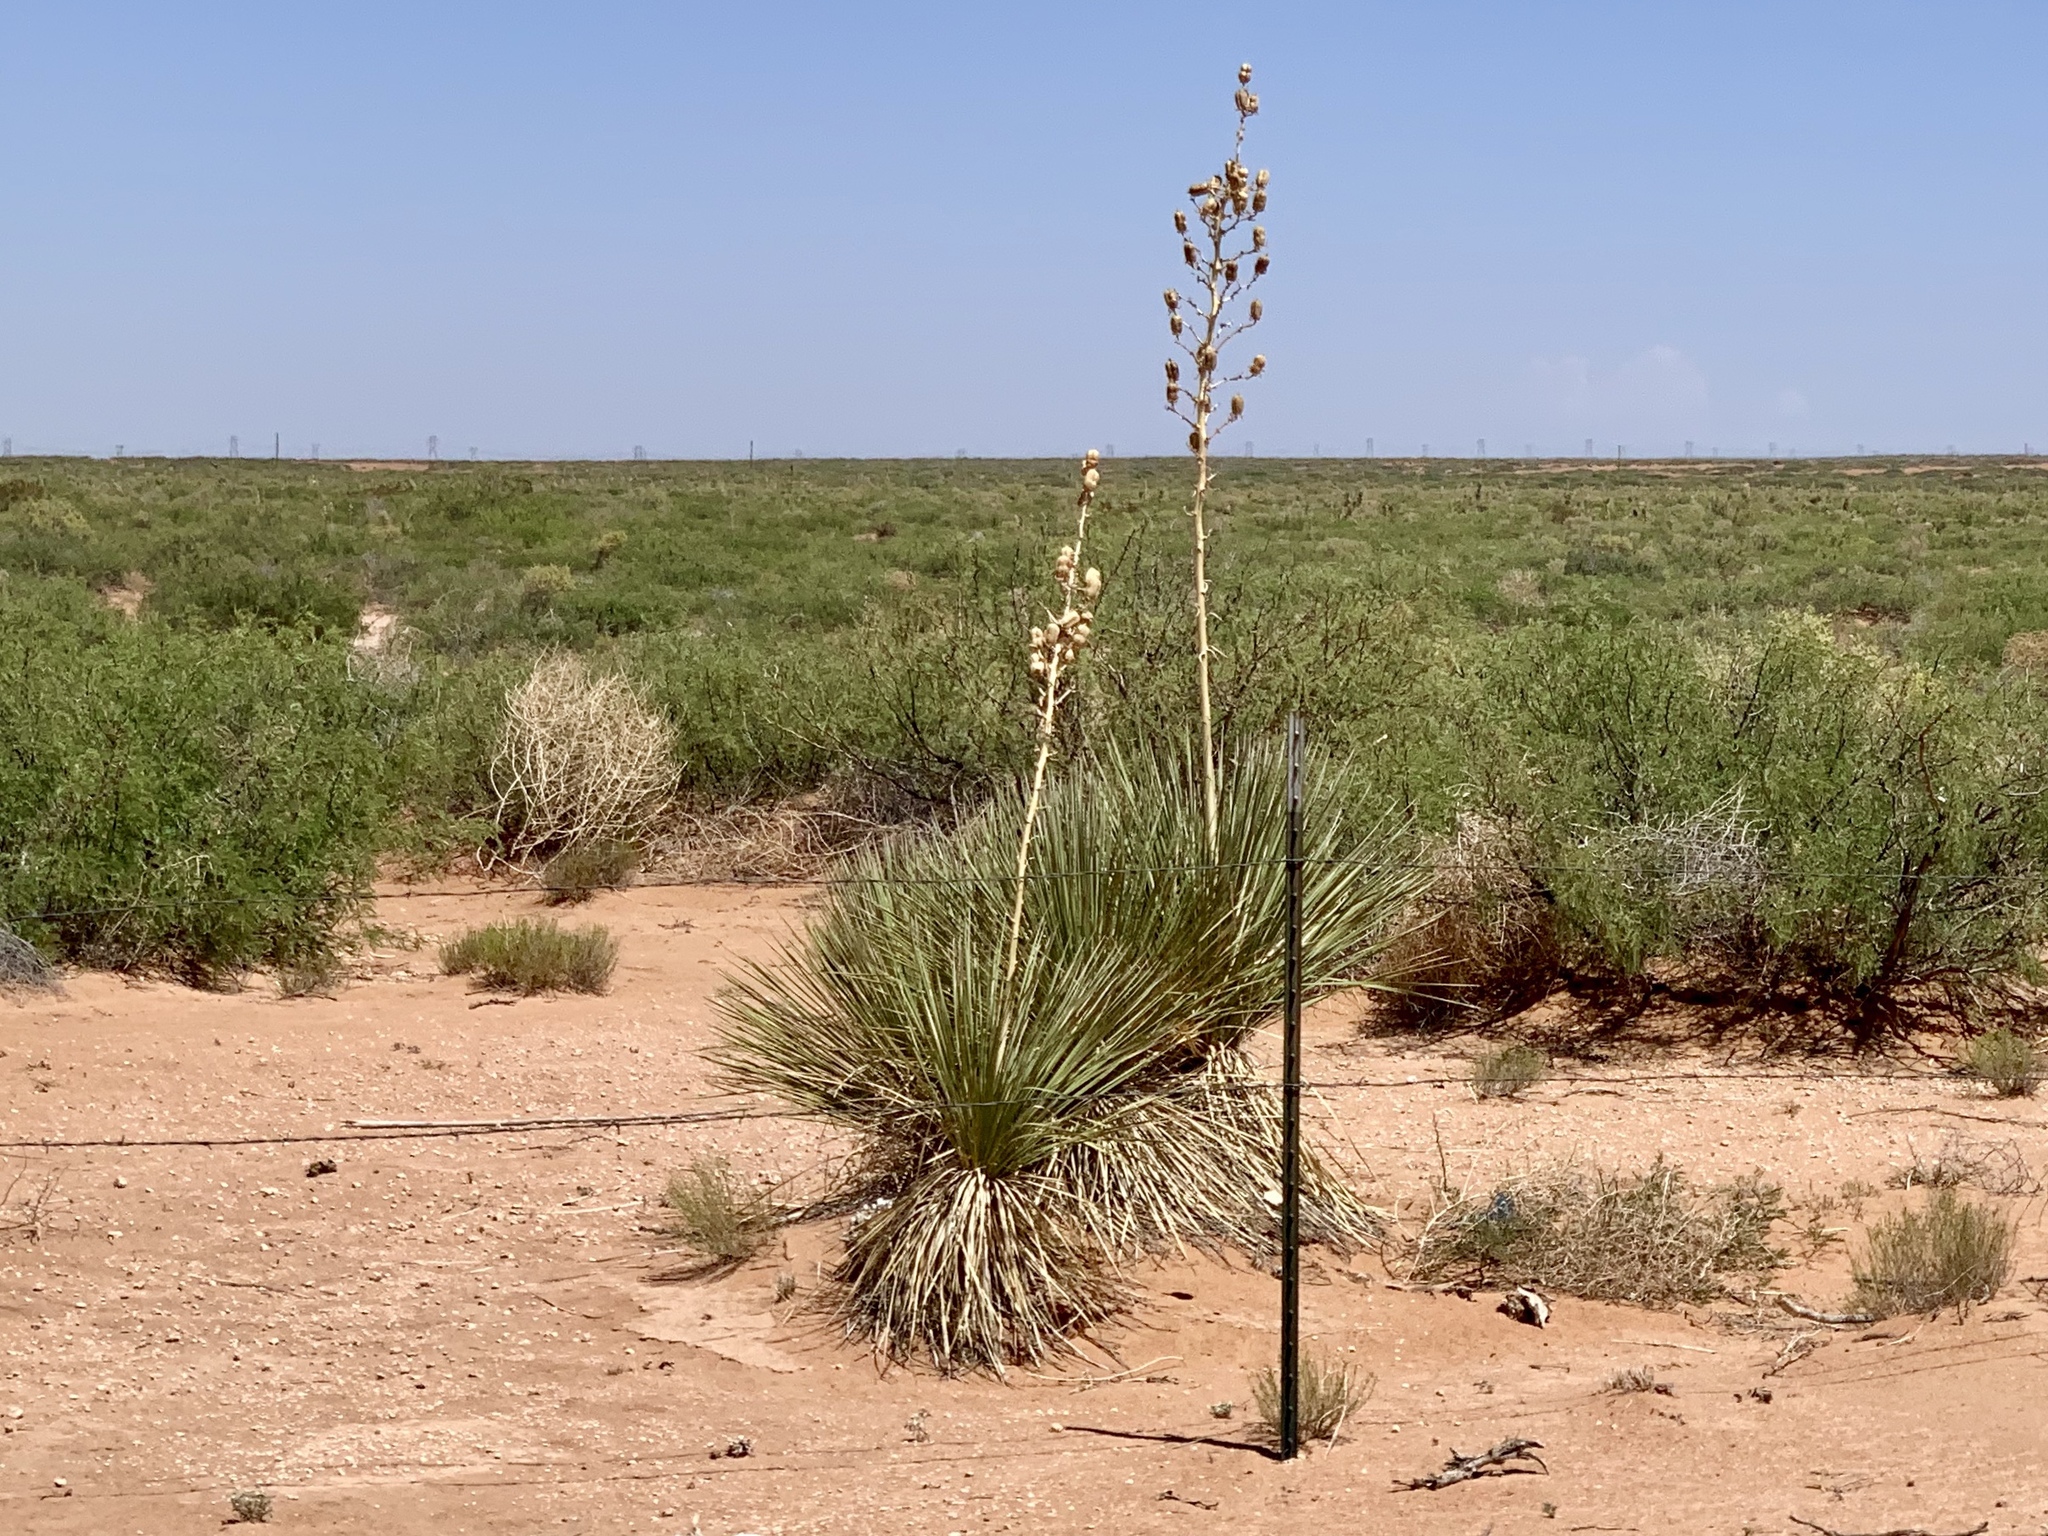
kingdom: Plantae
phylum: Tracheophyta
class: Liliopsida
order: Asparagales
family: Asparagaceae
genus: Yucca
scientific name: Yucca elata
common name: Palmella
